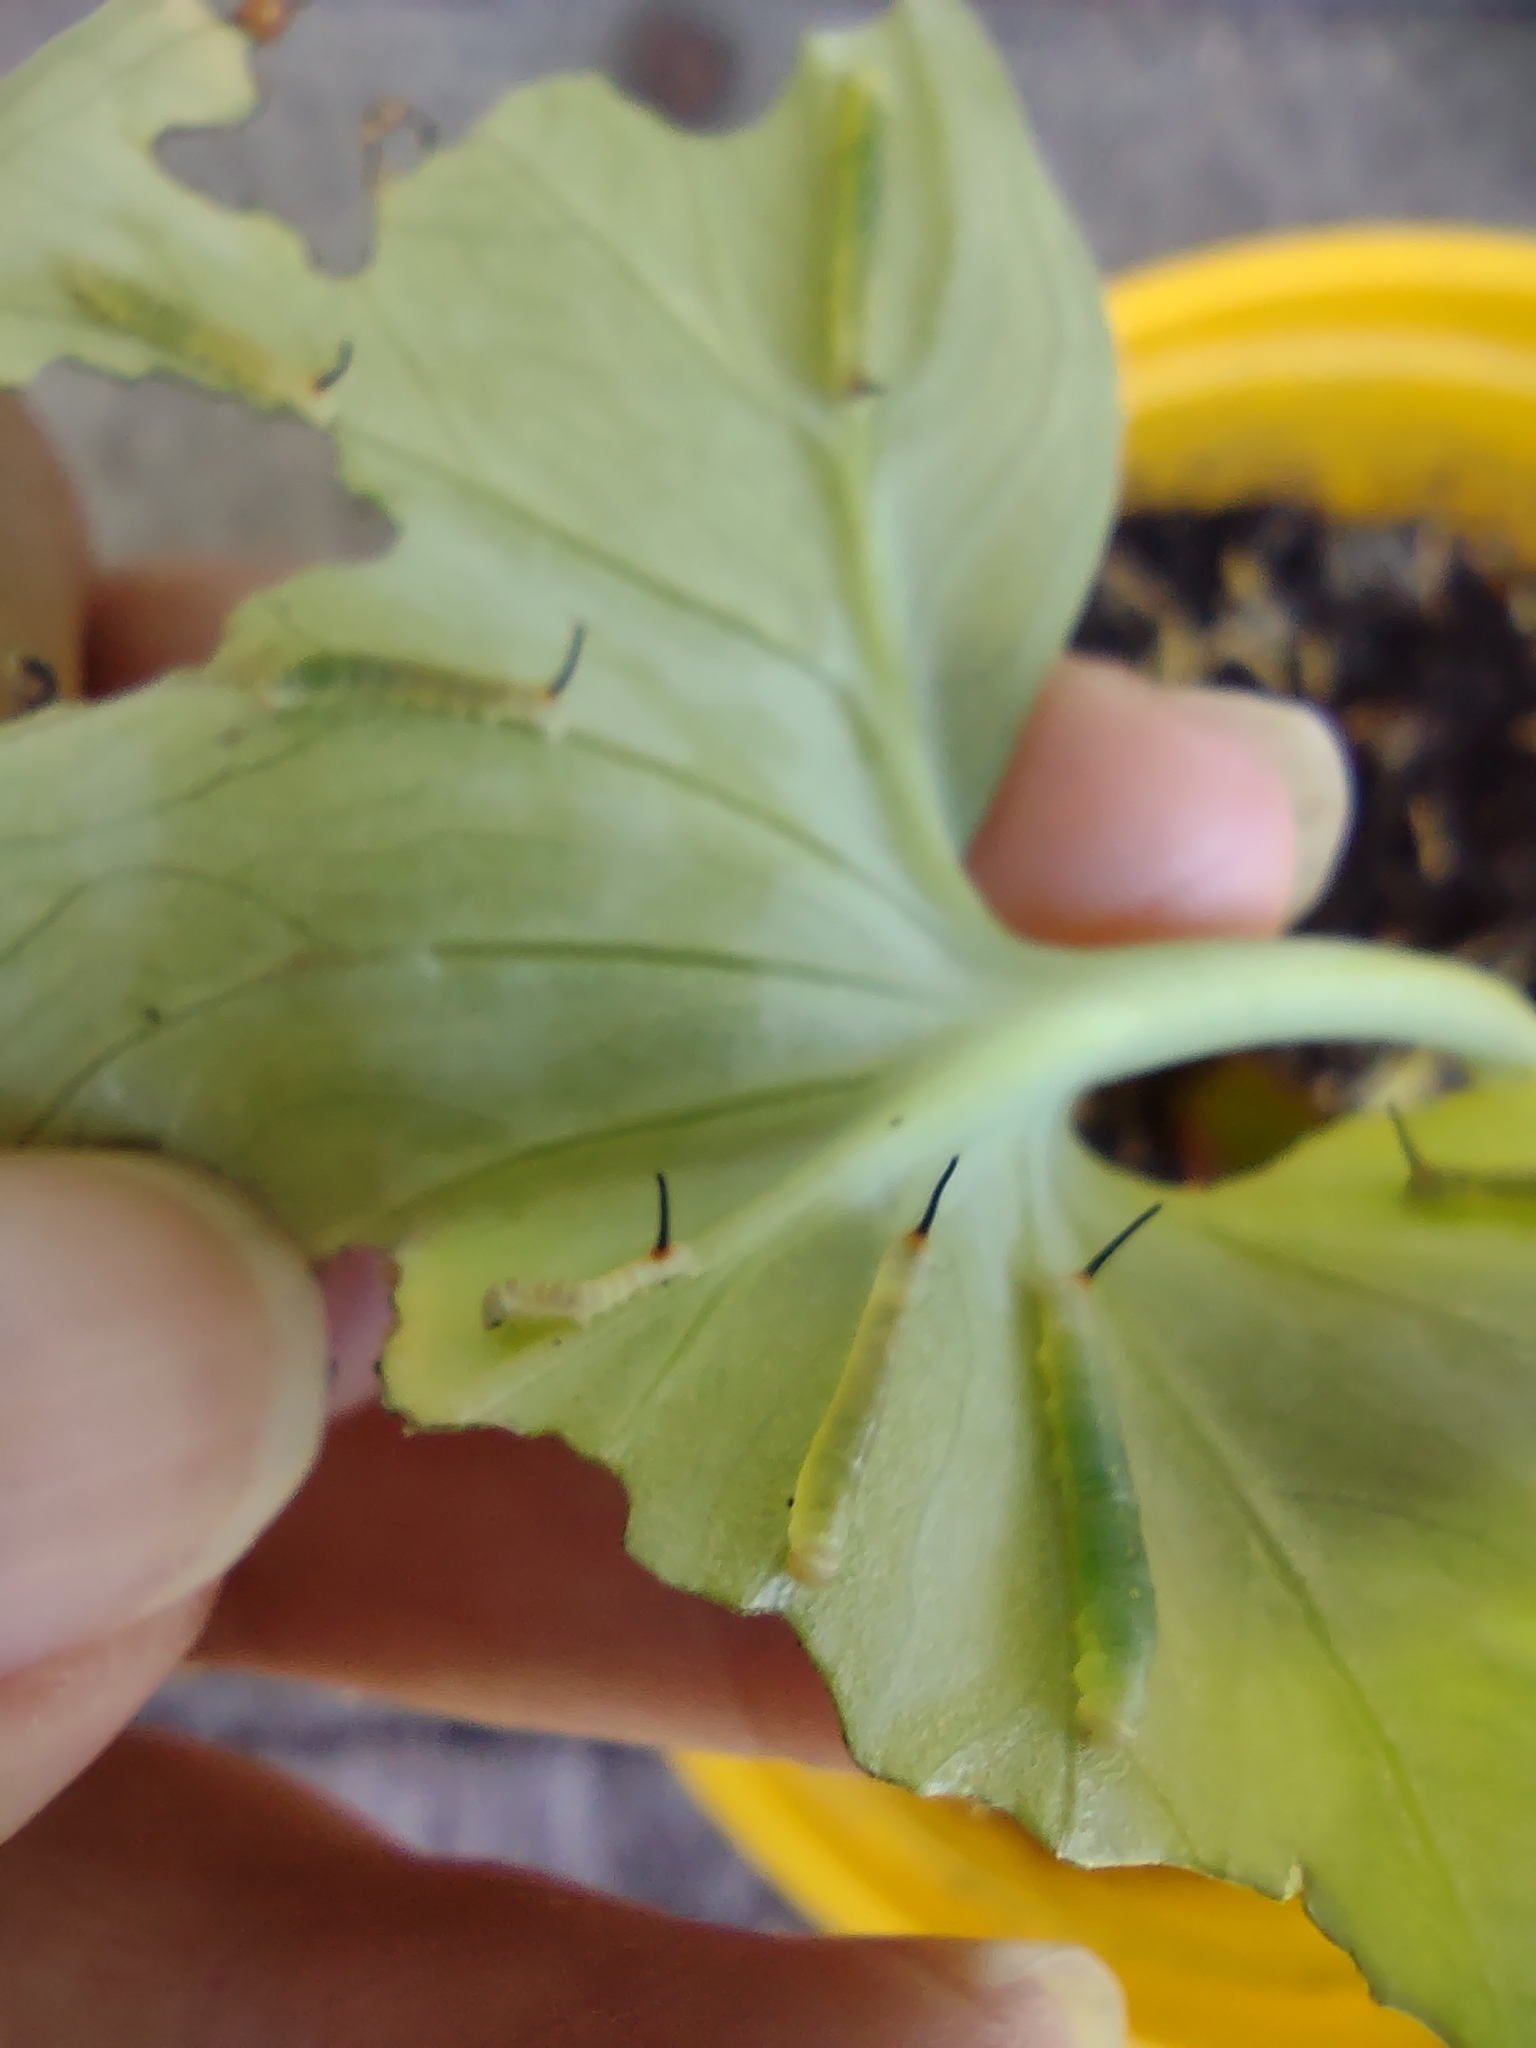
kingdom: Animalia
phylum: Arthropoda
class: Insecta
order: Lepidoptera
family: Sphingidae
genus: Theretra
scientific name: Theretra oldenlandiae
